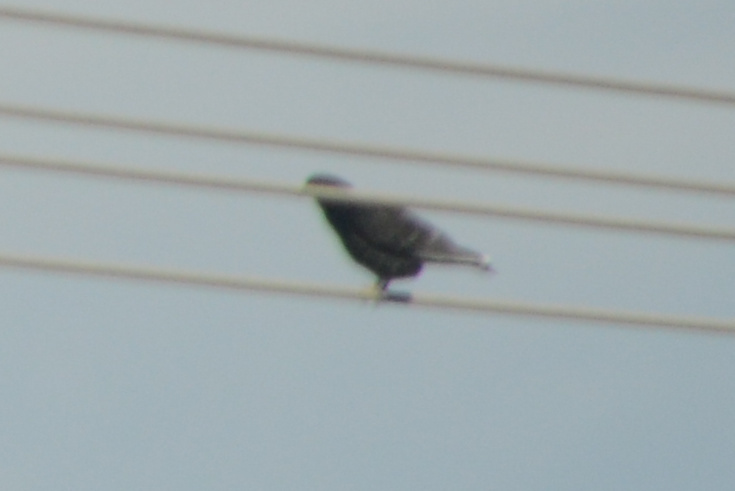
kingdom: Animalia
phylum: Chordata
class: Aves
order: Columbiformes
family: Columbidae
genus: Columba
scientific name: Columba livia
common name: Rock pigeon
